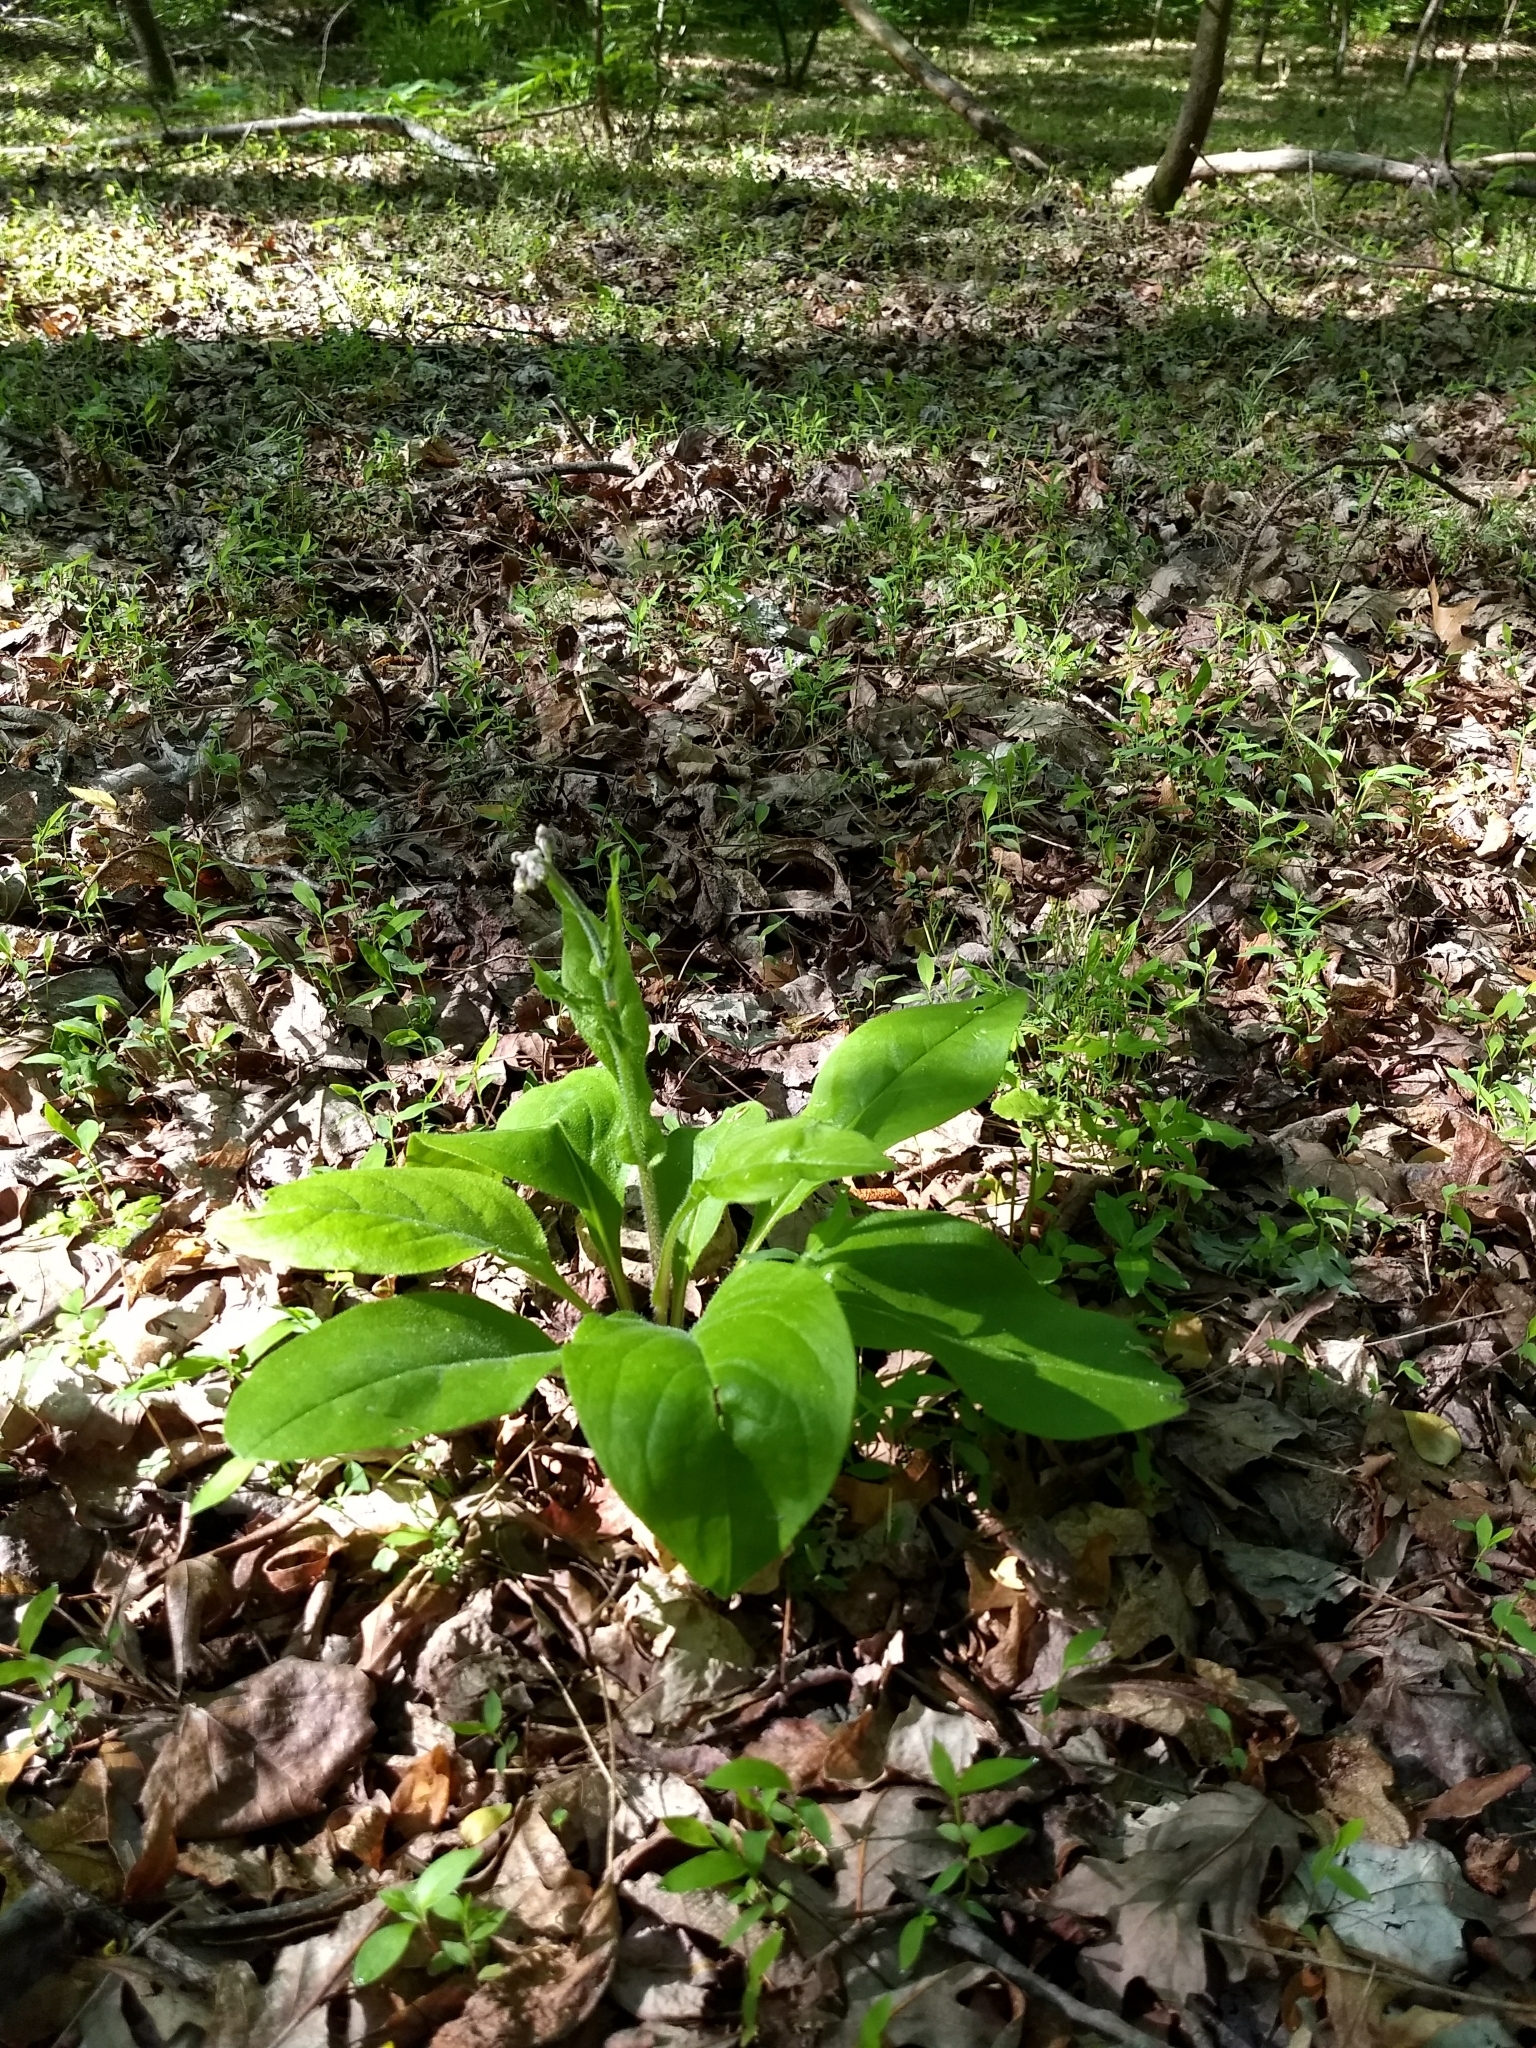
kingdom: Plantae
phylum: Tracheophyta
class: Magnoliopsida
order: Boraginales
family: Boraginaceae
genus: Andersonglossum
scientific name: Andersonglossum virginianum
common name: Wild comfrey
